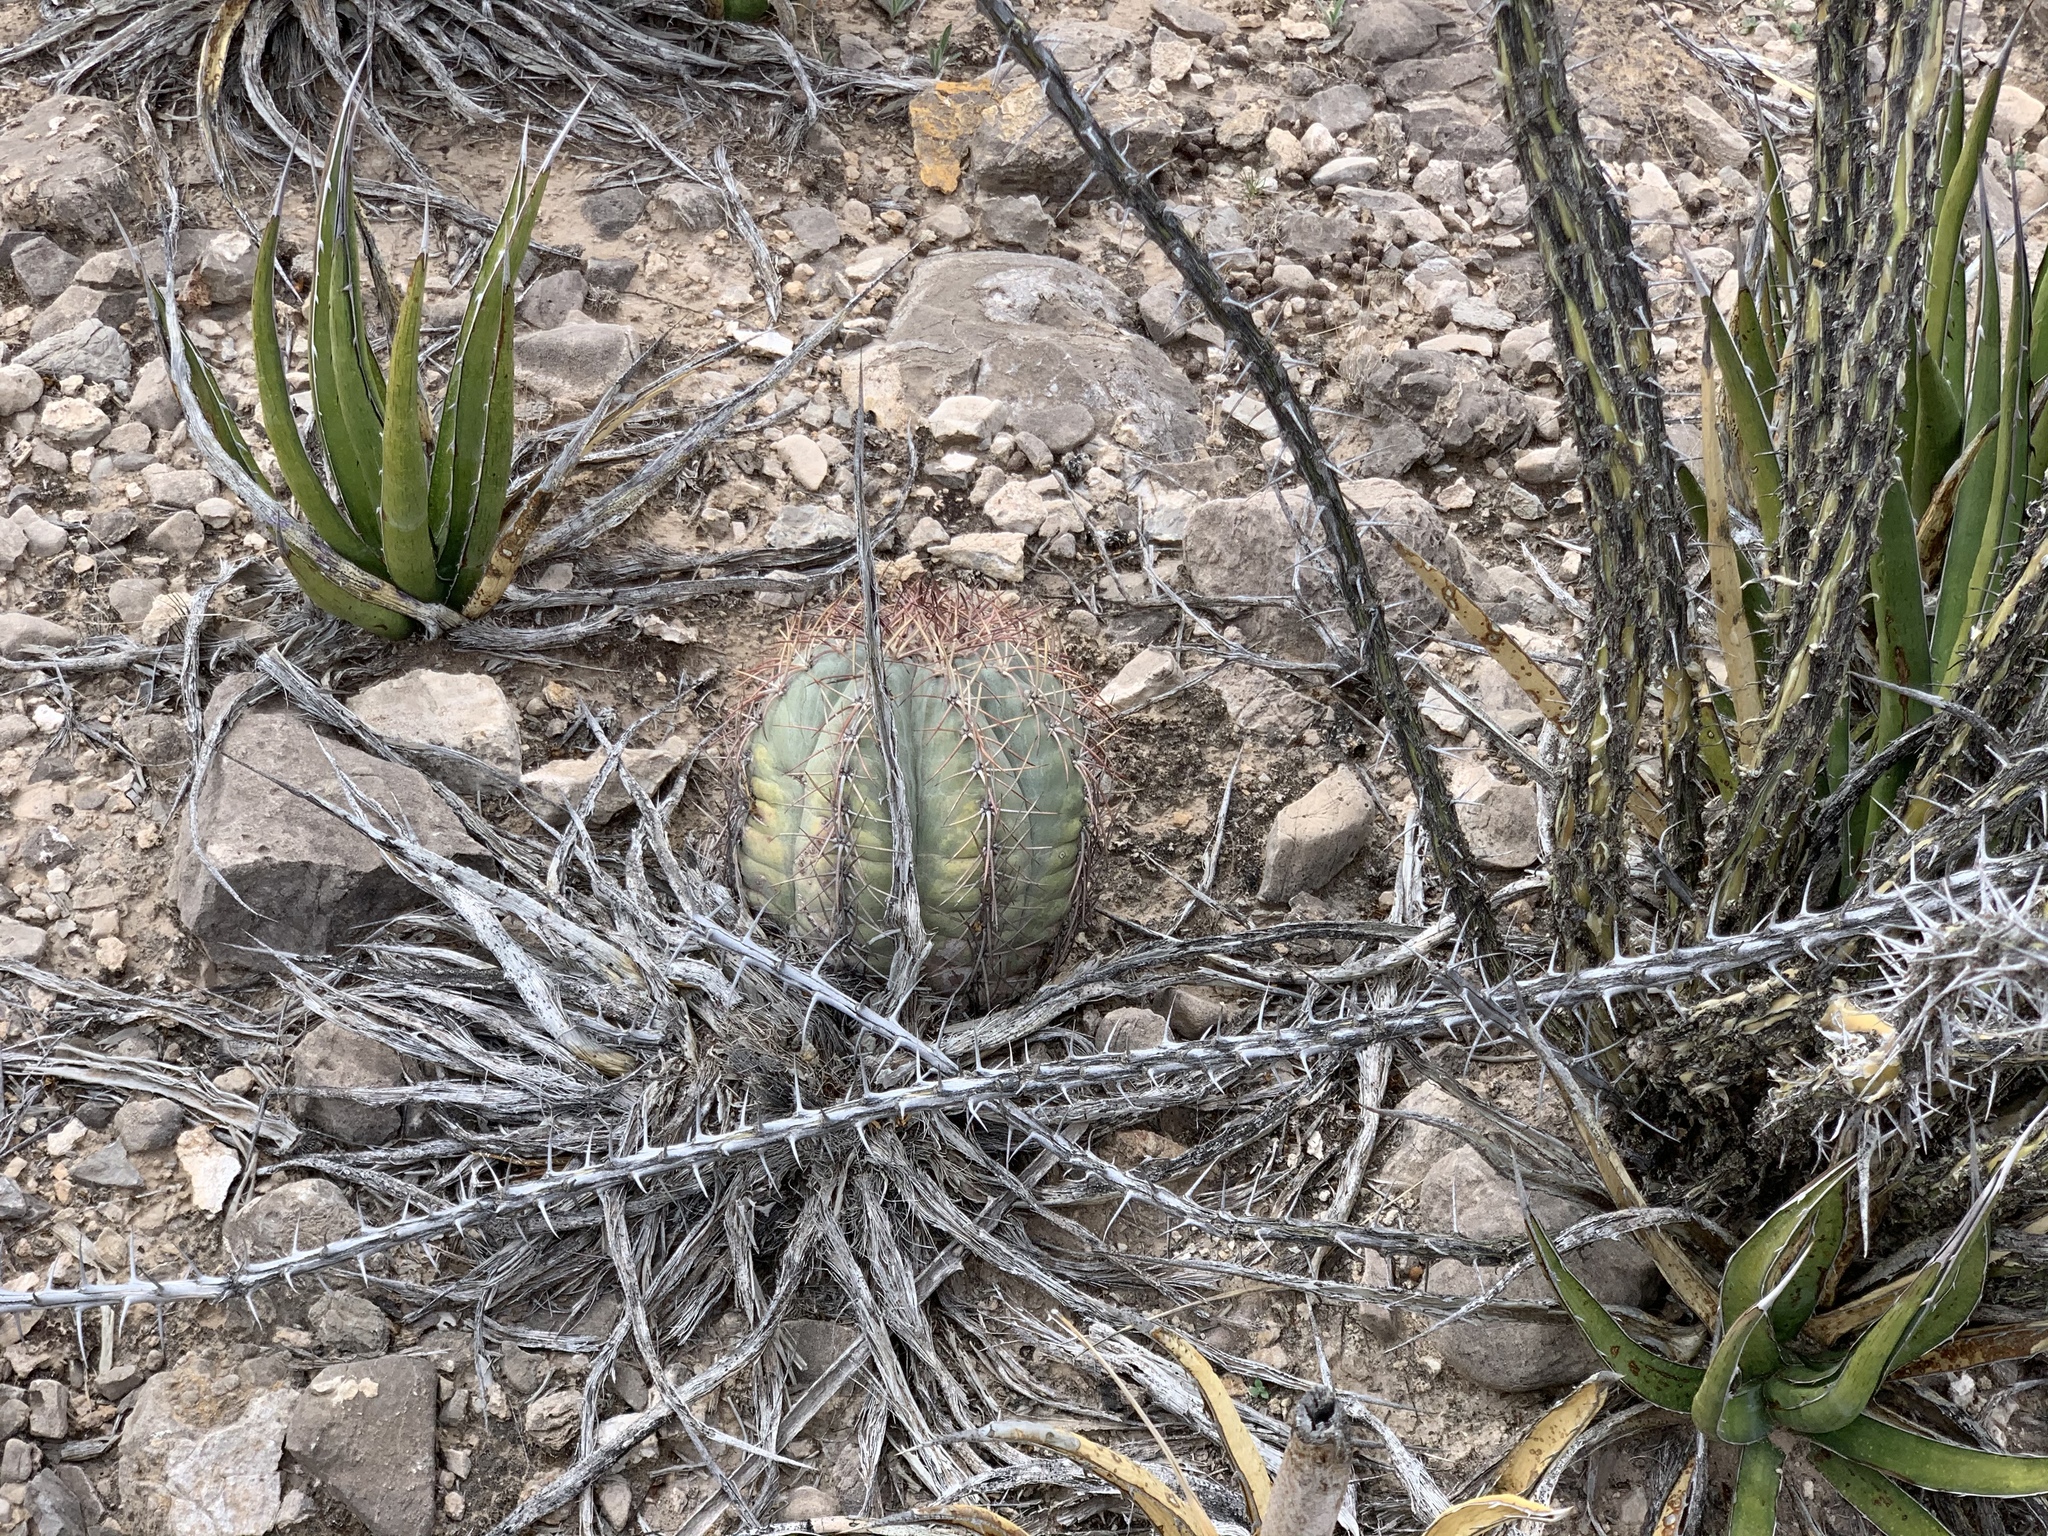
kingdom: Plantae
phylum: Tracheophyta
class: Magnoliopsida
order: Caryophyllales
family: Cactaceae
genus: Echinocactus
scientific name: Echinocactus horizonthalonius
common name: Devilshead
